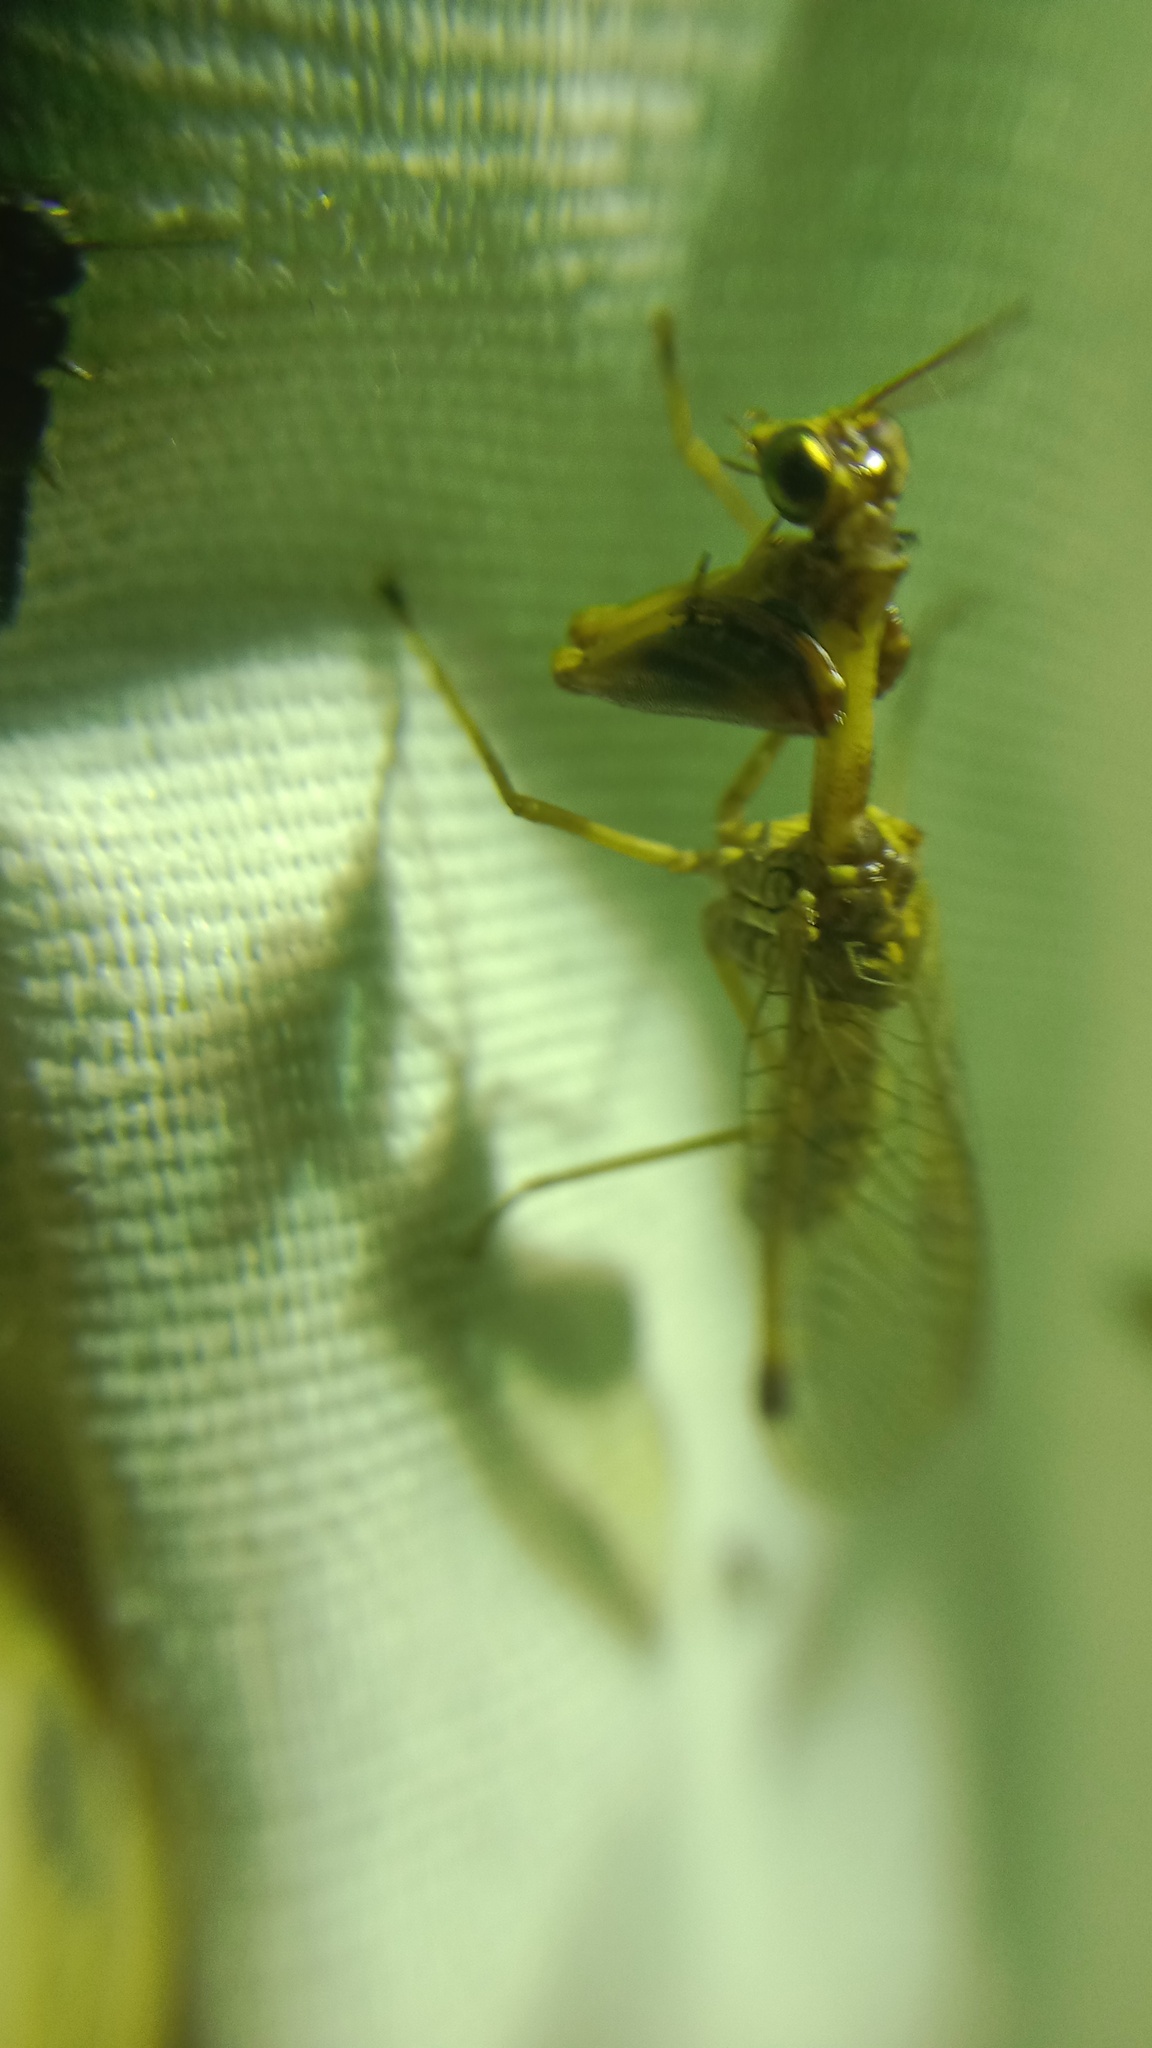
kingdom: Animalia
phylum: Arthropoda
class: Insecta
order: Neuroptera
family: Mantispidae
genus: Mantispa
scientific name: Mantispa styriaca
